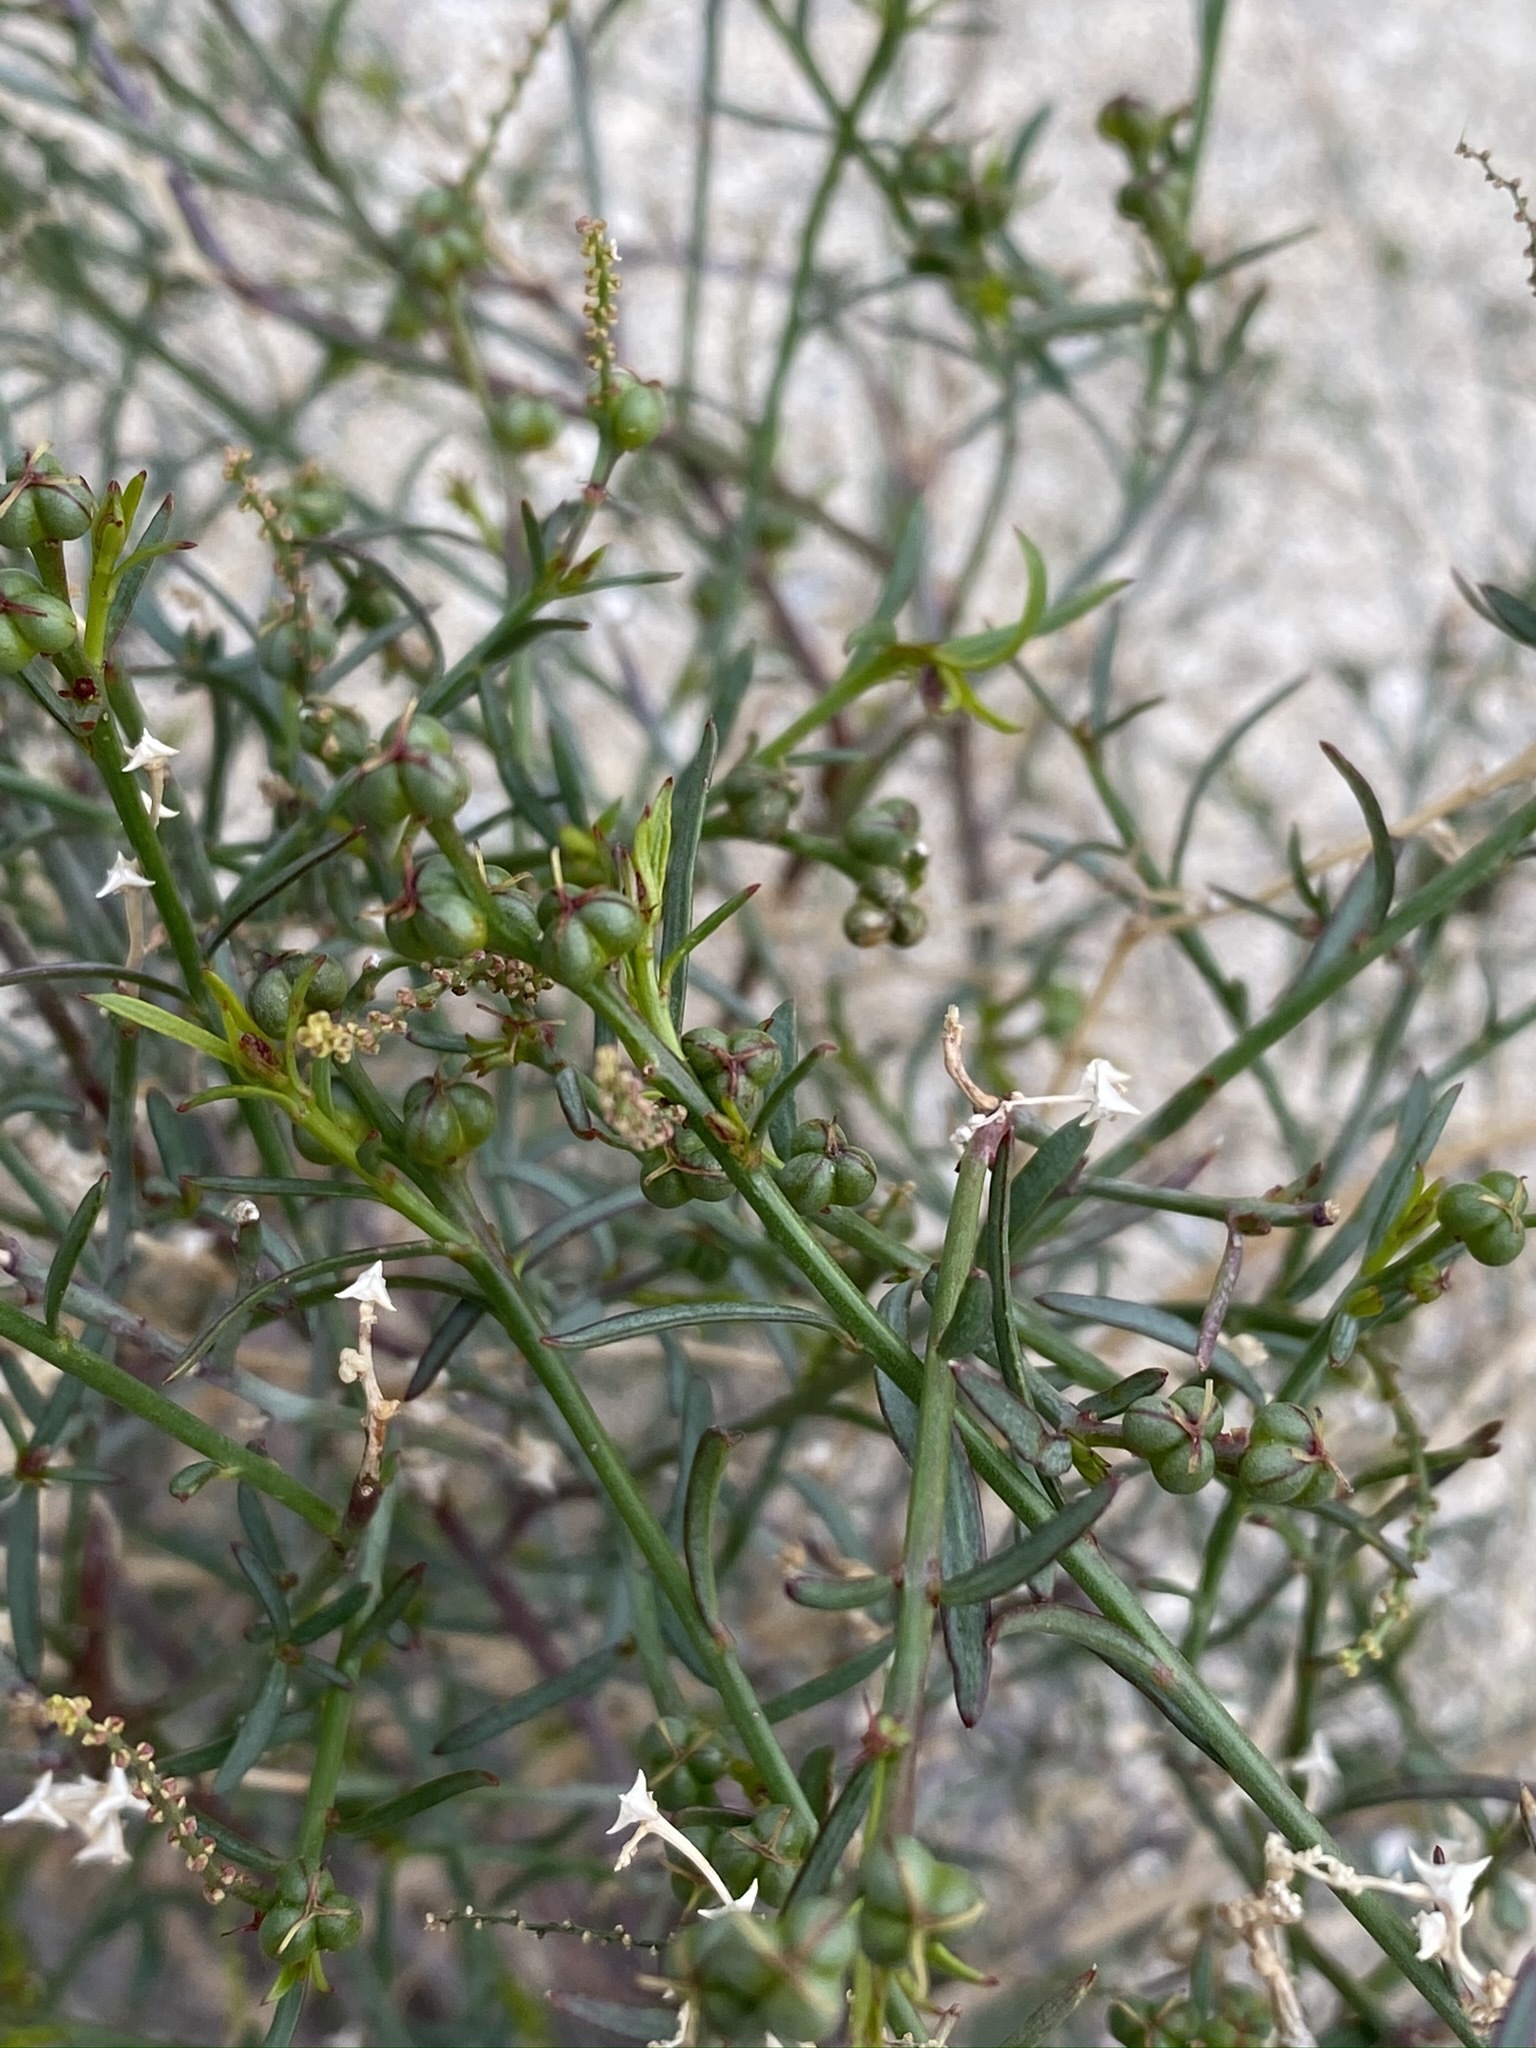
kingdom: Plantae
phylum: Tracheophyta
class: Magnoliopsida
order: Malpighiales
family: Euphorbiaceae
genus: Stillingia
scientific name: Stillingia linearifolia
